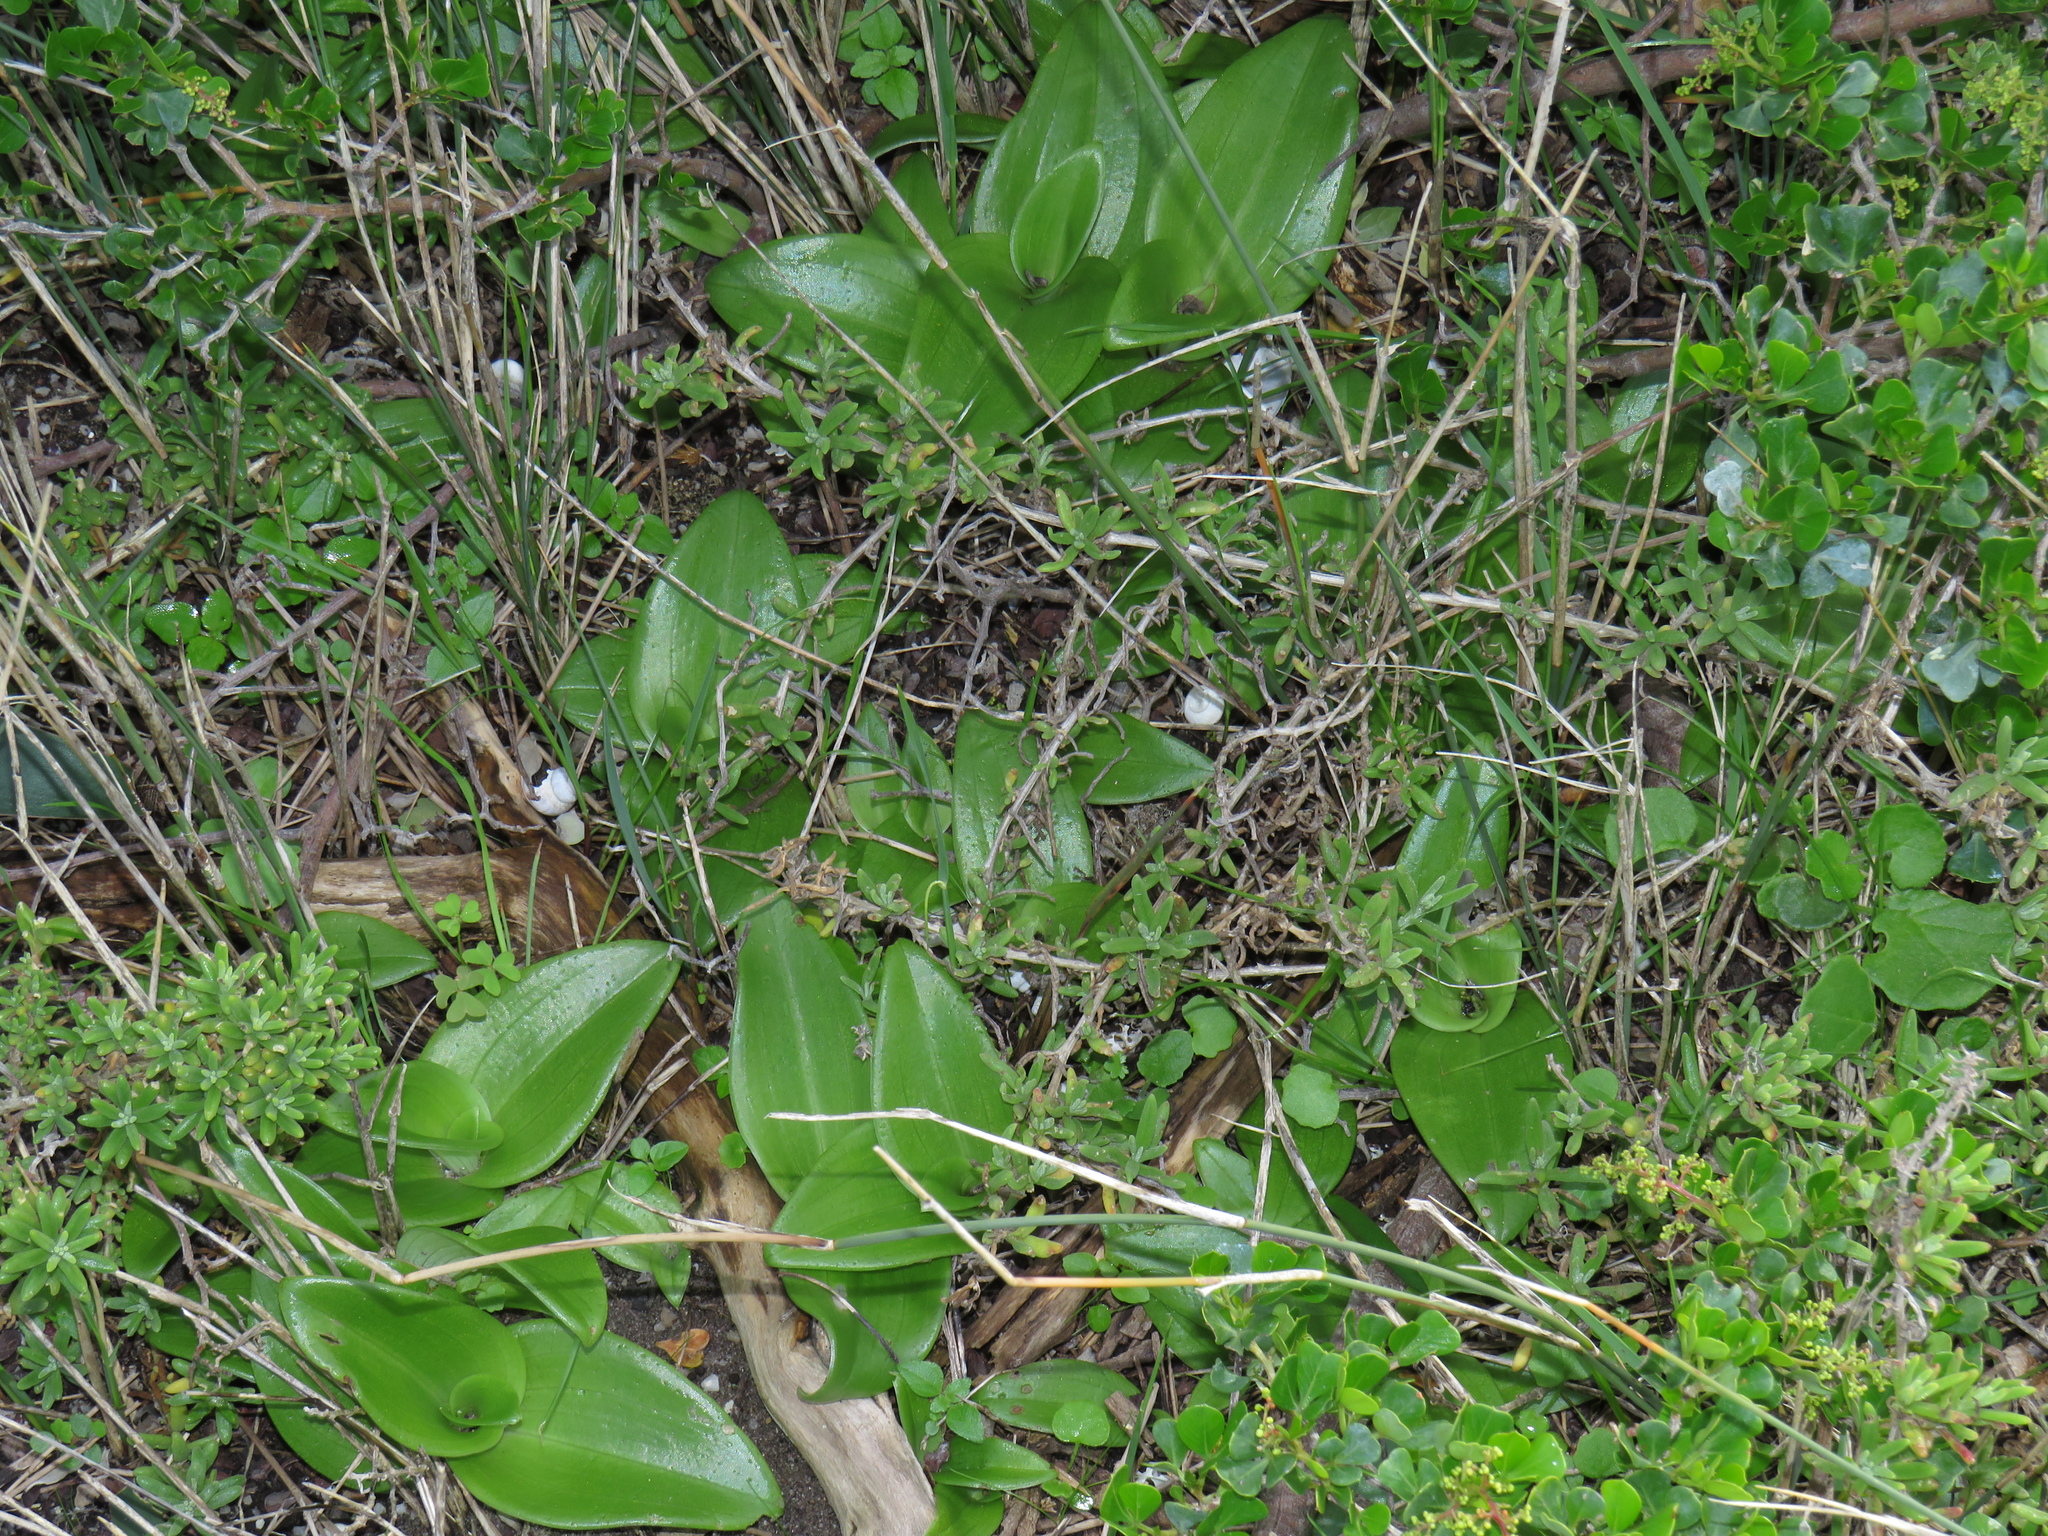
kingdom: Plantae
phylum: Tracheophyta
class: Liliopsida
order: Asparagales
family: Orchidaceae
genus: Satyrium
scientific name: Satyrium odorum
